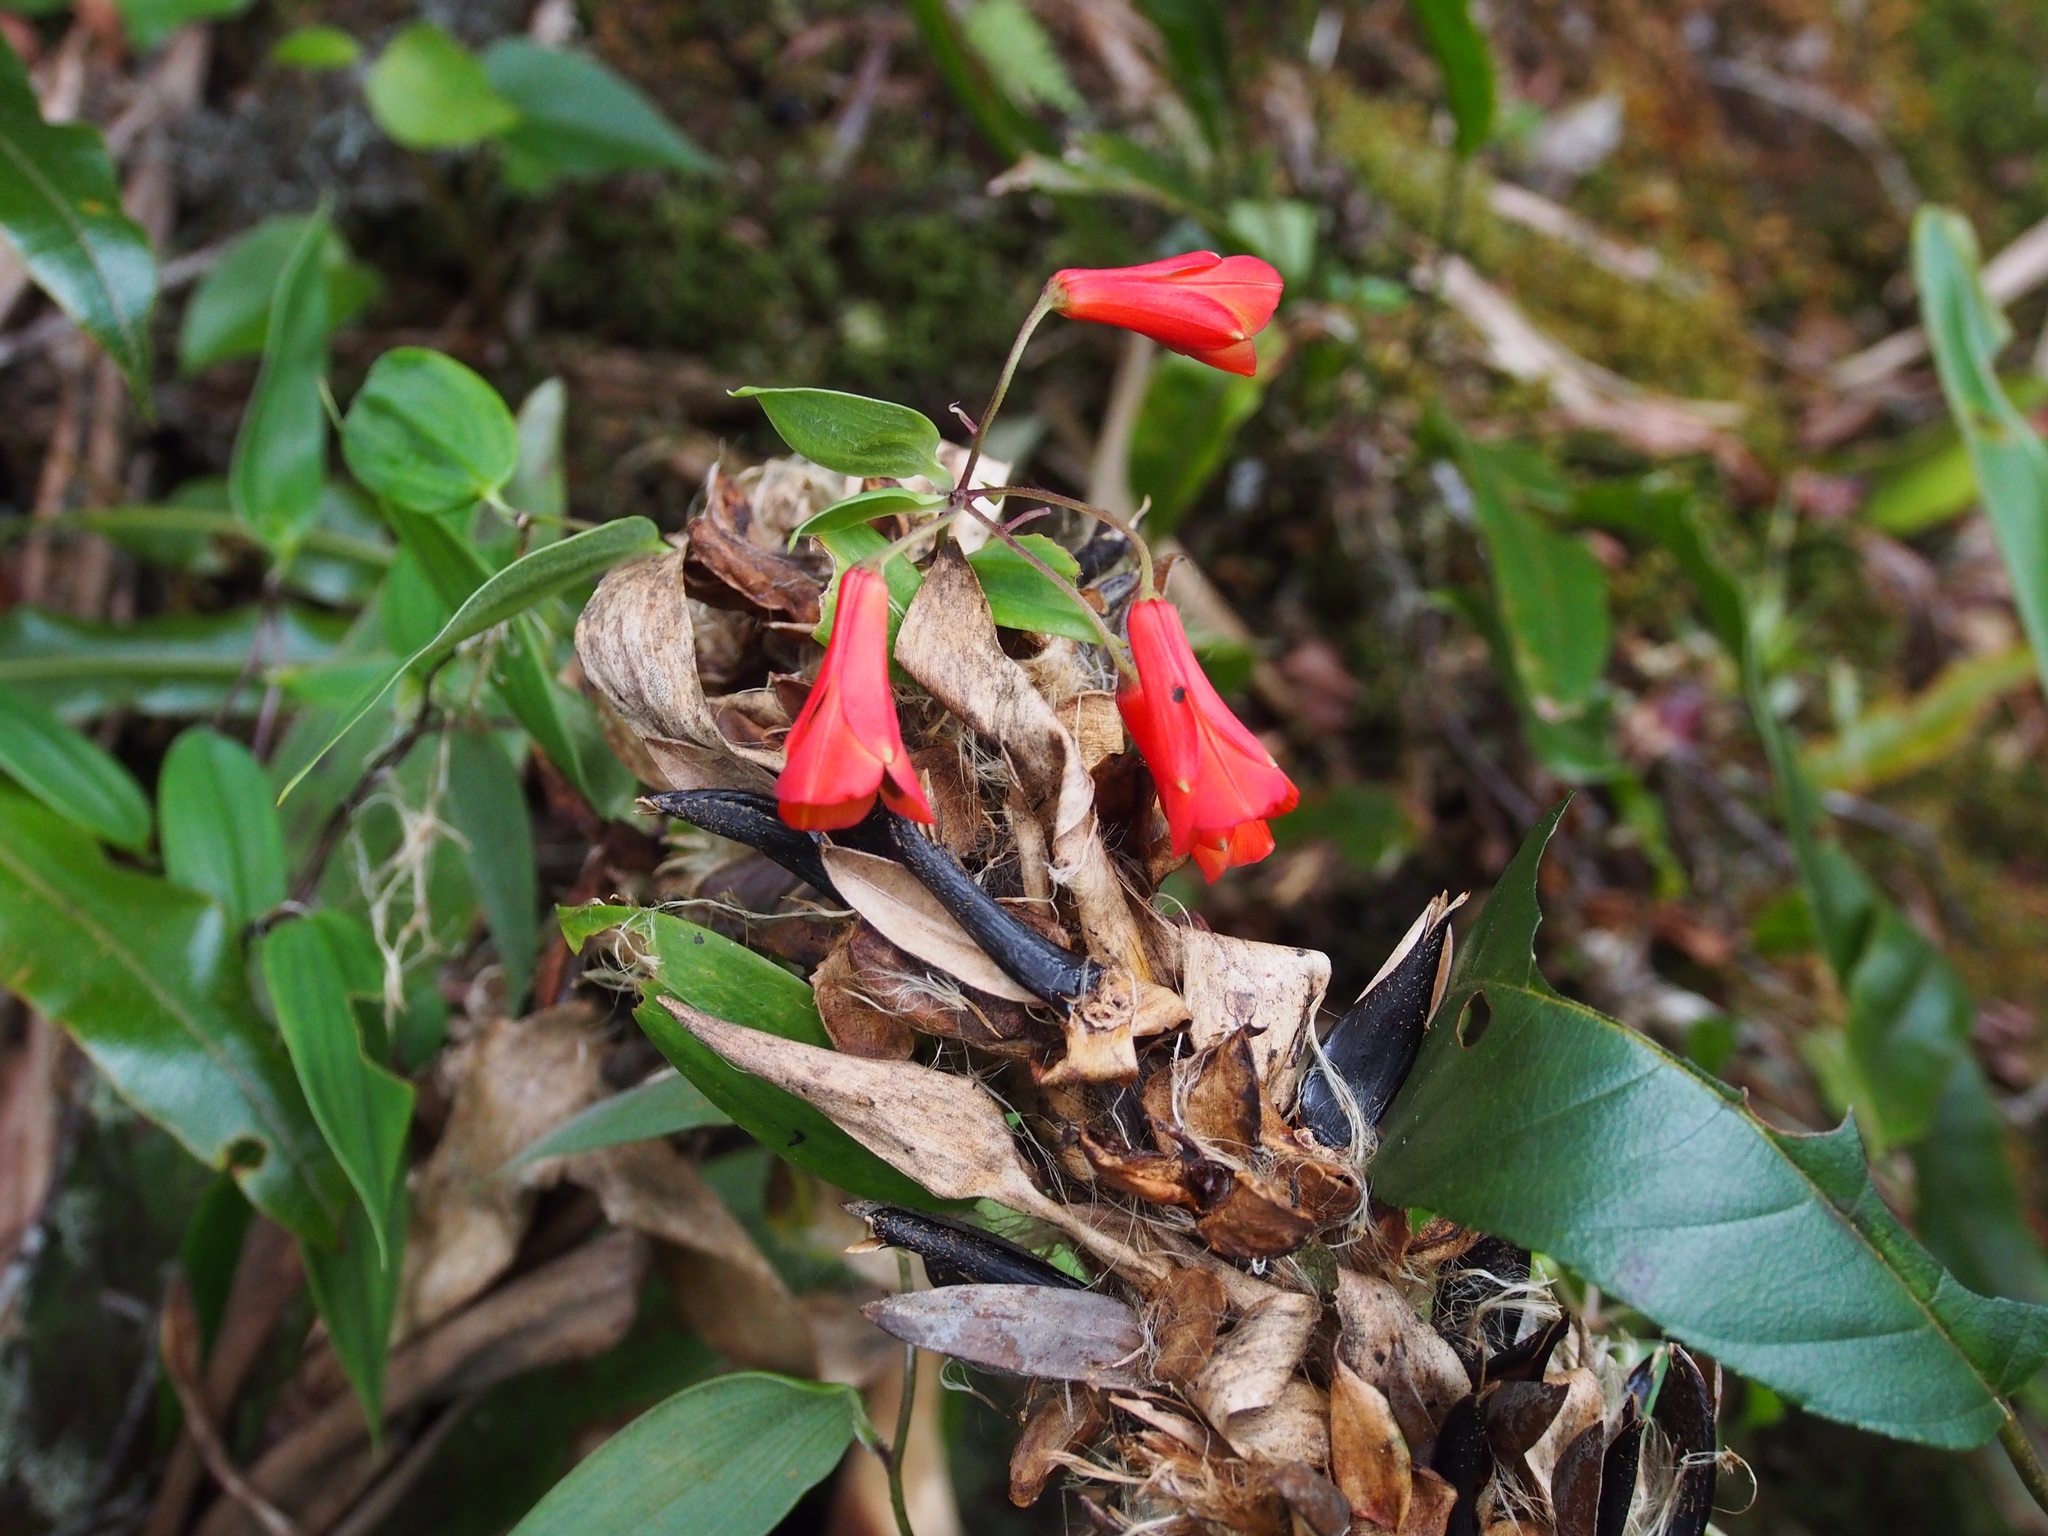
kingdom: Plantae
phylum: Tracheophyta
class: Liliopsida
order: Liliales
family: Alstroemeriaceae
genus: Bomarea
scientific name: Bomarea hirsuta
